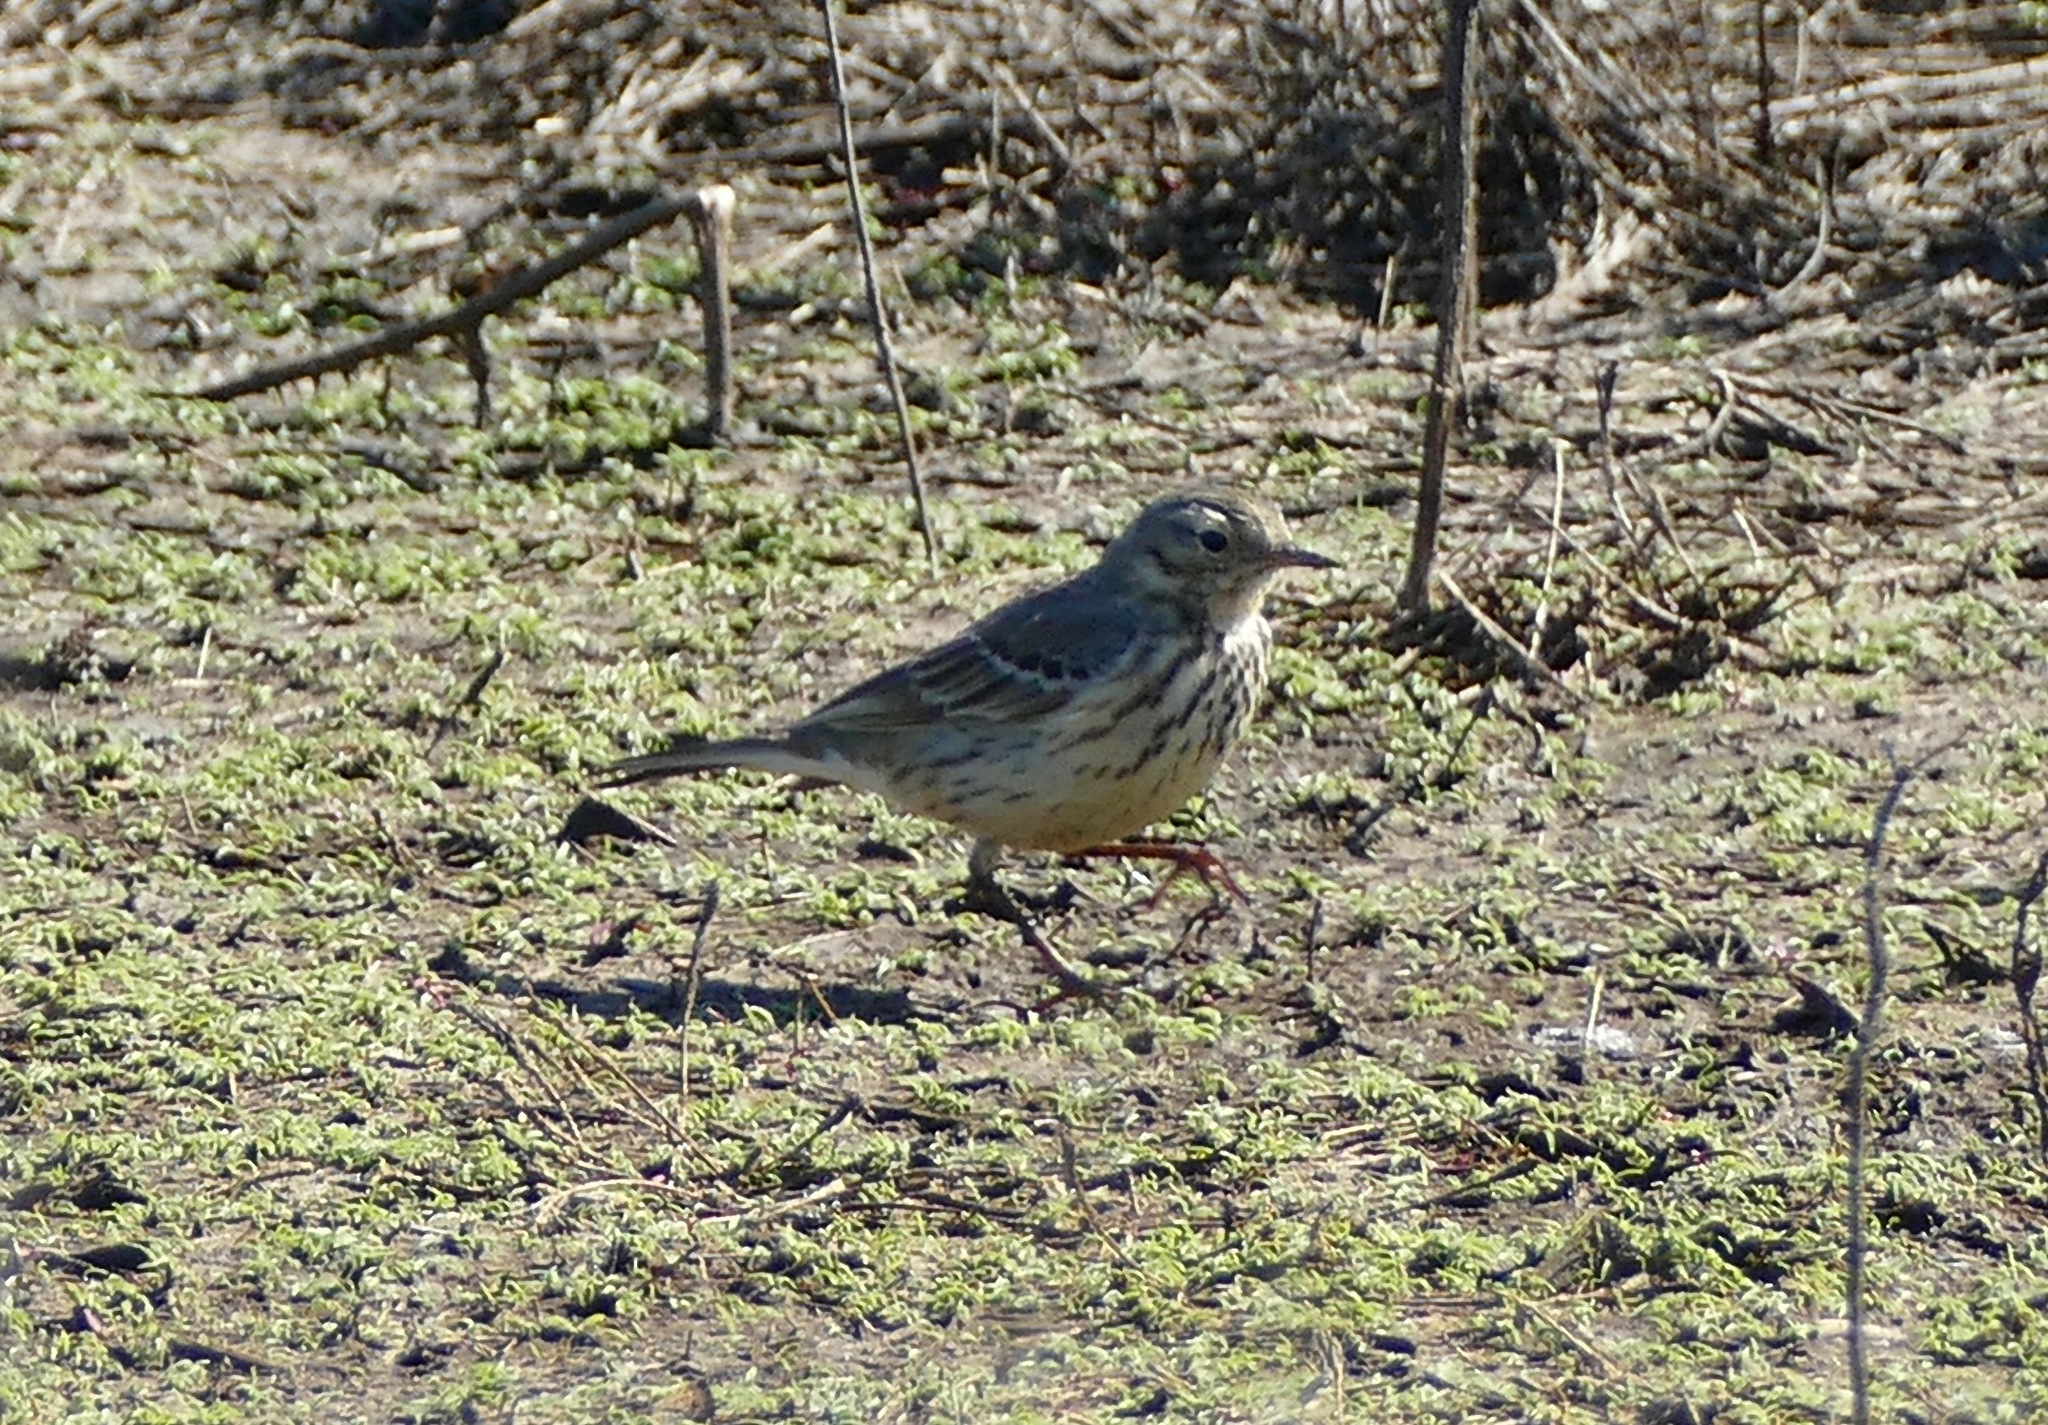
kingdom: Animalia
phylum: Chordata
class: Aves
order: Passeriformes
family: Motacillidae
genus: Anthus
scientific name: Anthus rubescens
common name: Buff-bellied pipit
